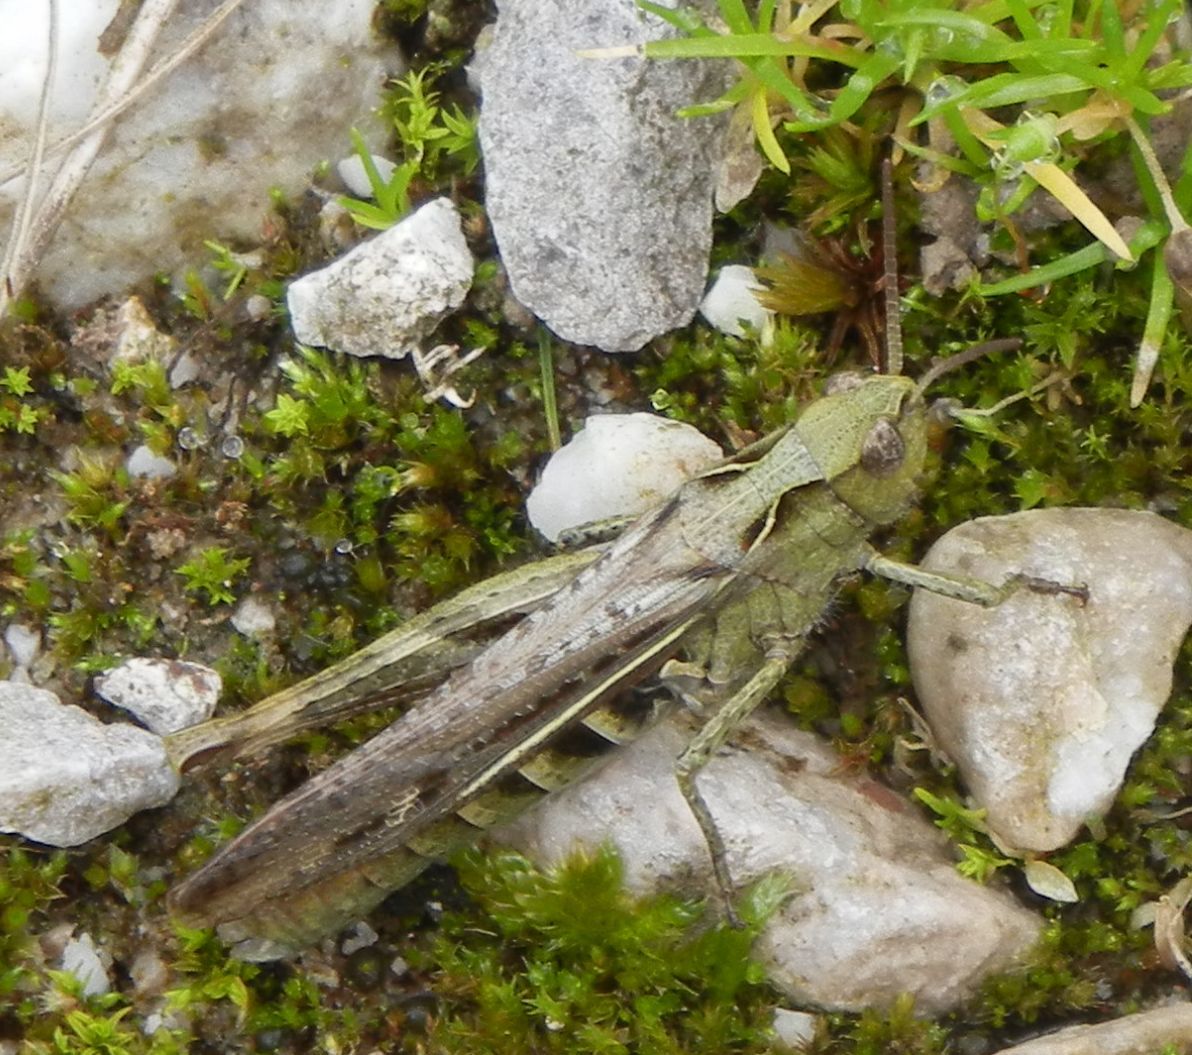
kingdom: Animalia
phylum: Arthropoda
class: Insecta
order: Orthoptera
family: Acrididae
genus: Chorthippus
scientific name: Chorthippus brunneus
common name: Field grasshopper
